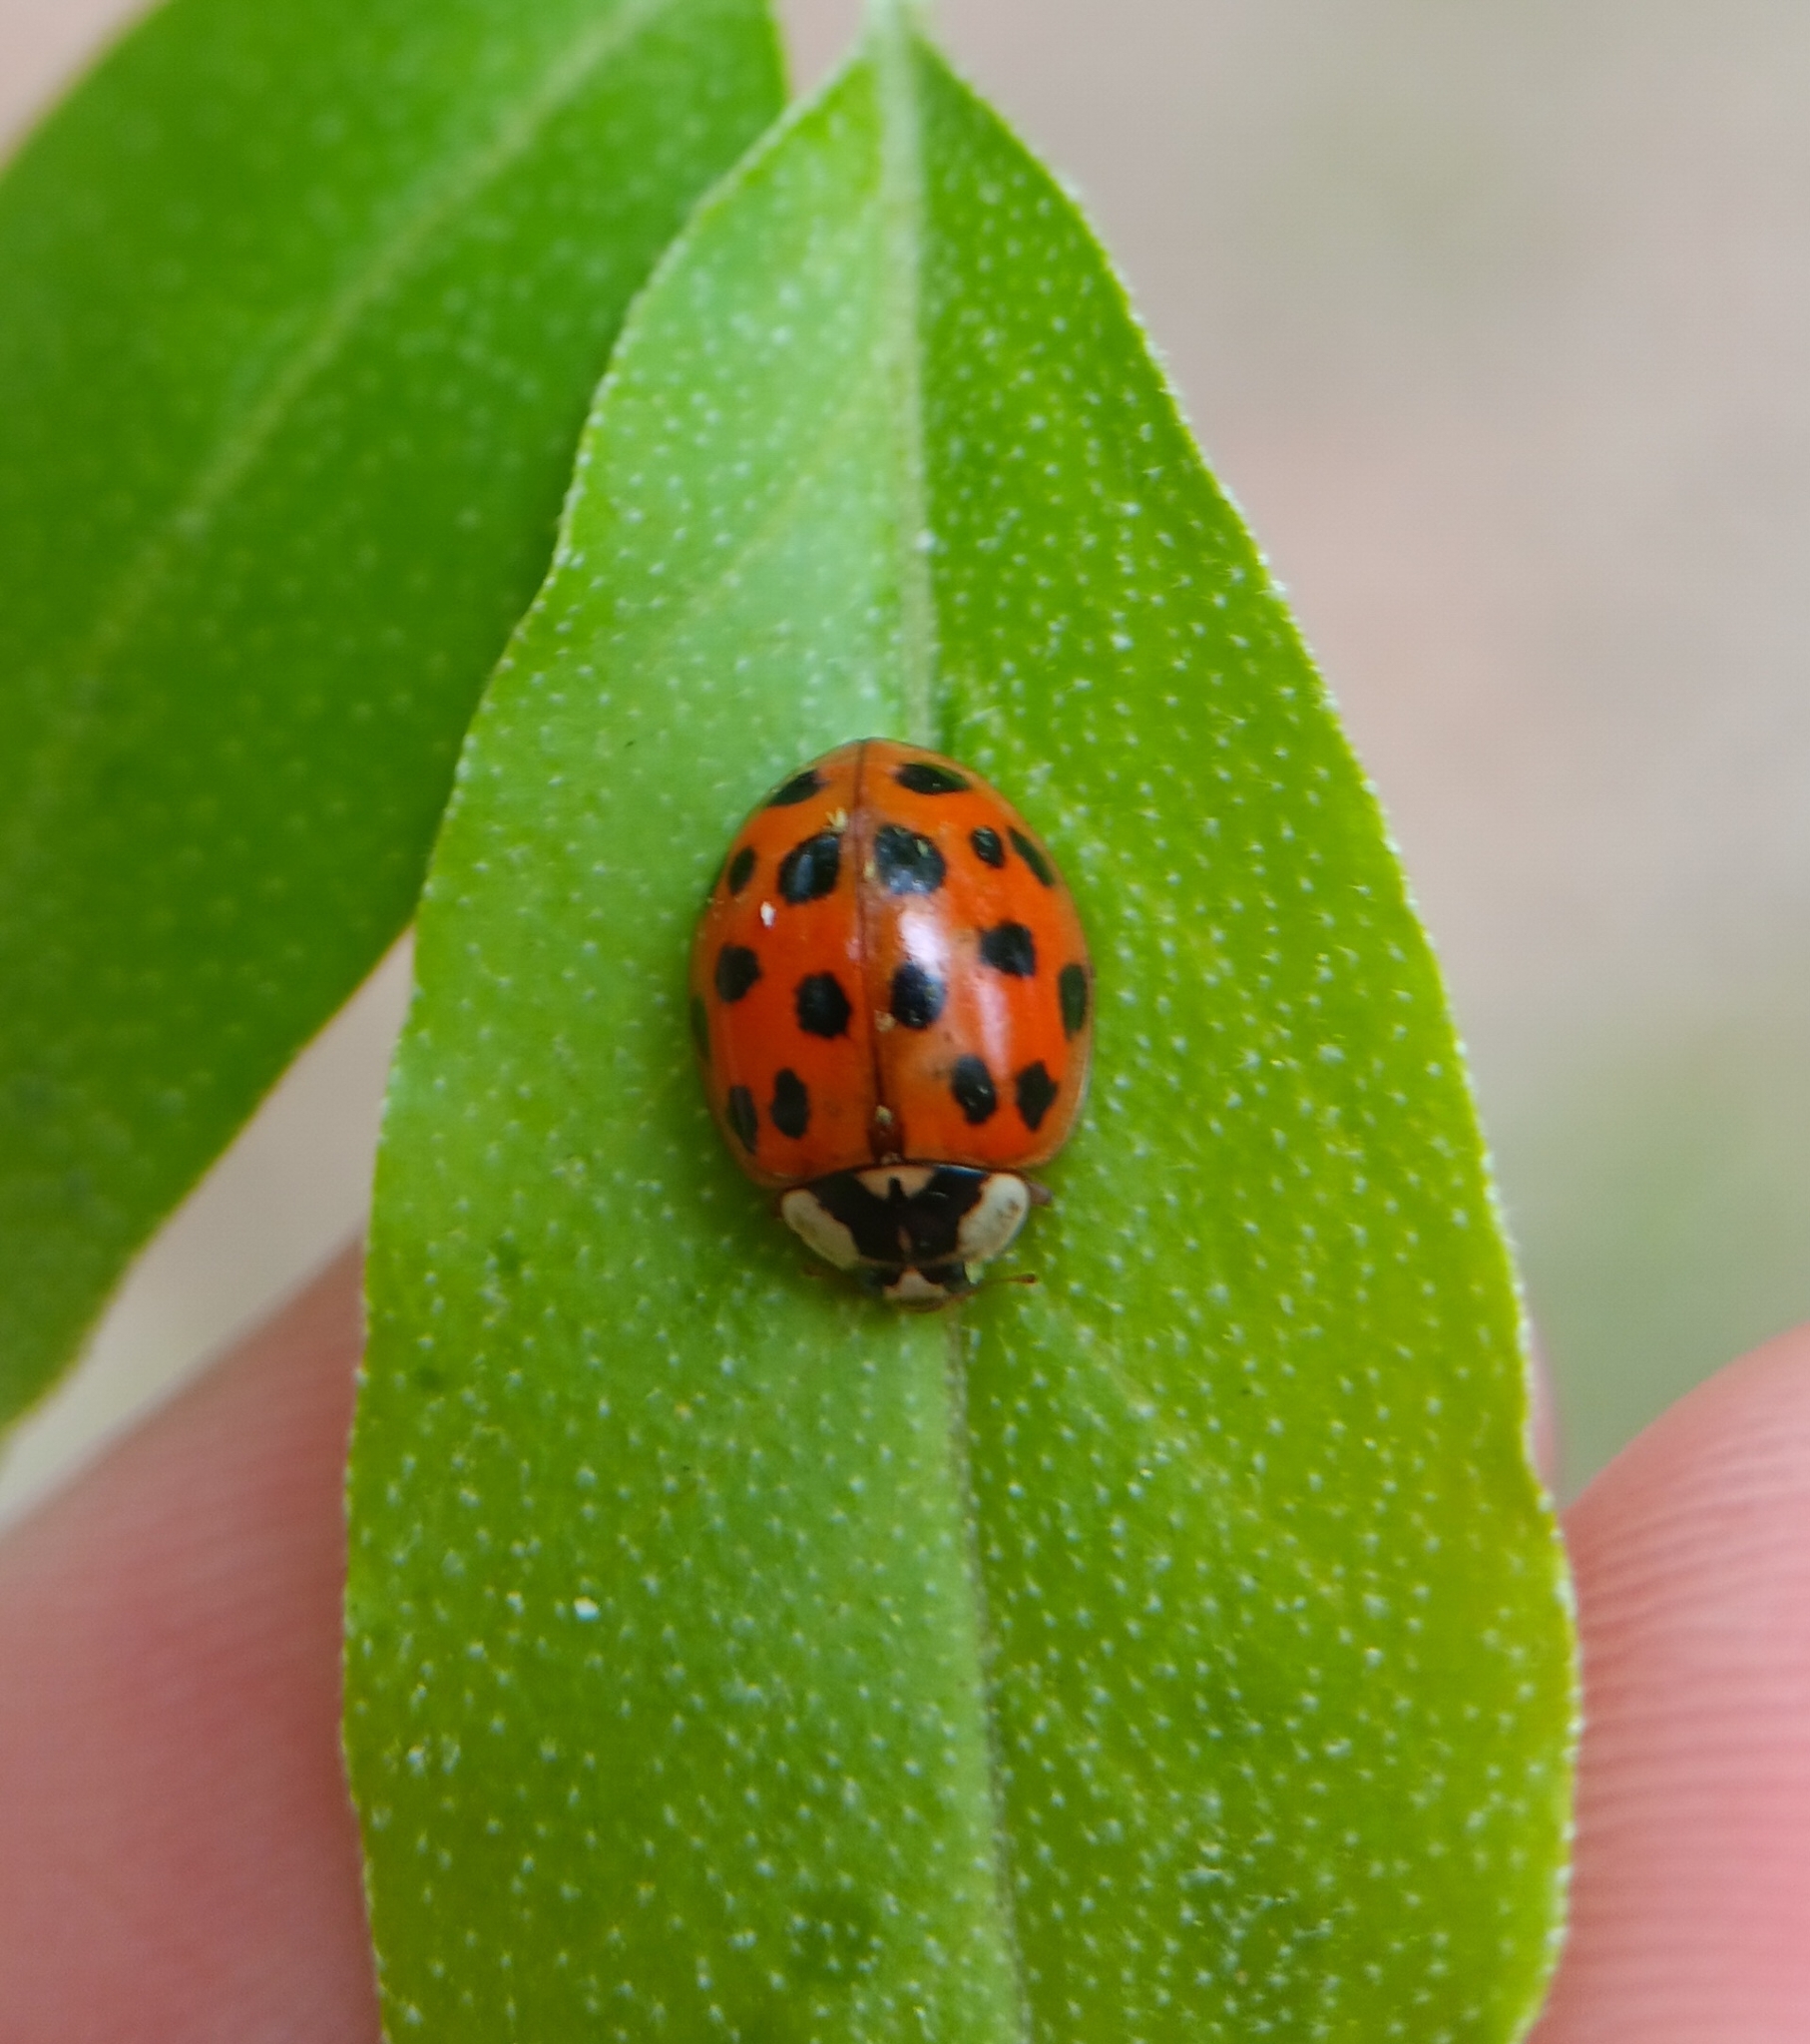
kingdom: Animalia
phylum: Arthropoda
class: Insecta
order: Coleoptera
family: Coccinellidae
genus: Harmonia
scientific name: Harmonia axyridis
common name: Harlequin ladybird
